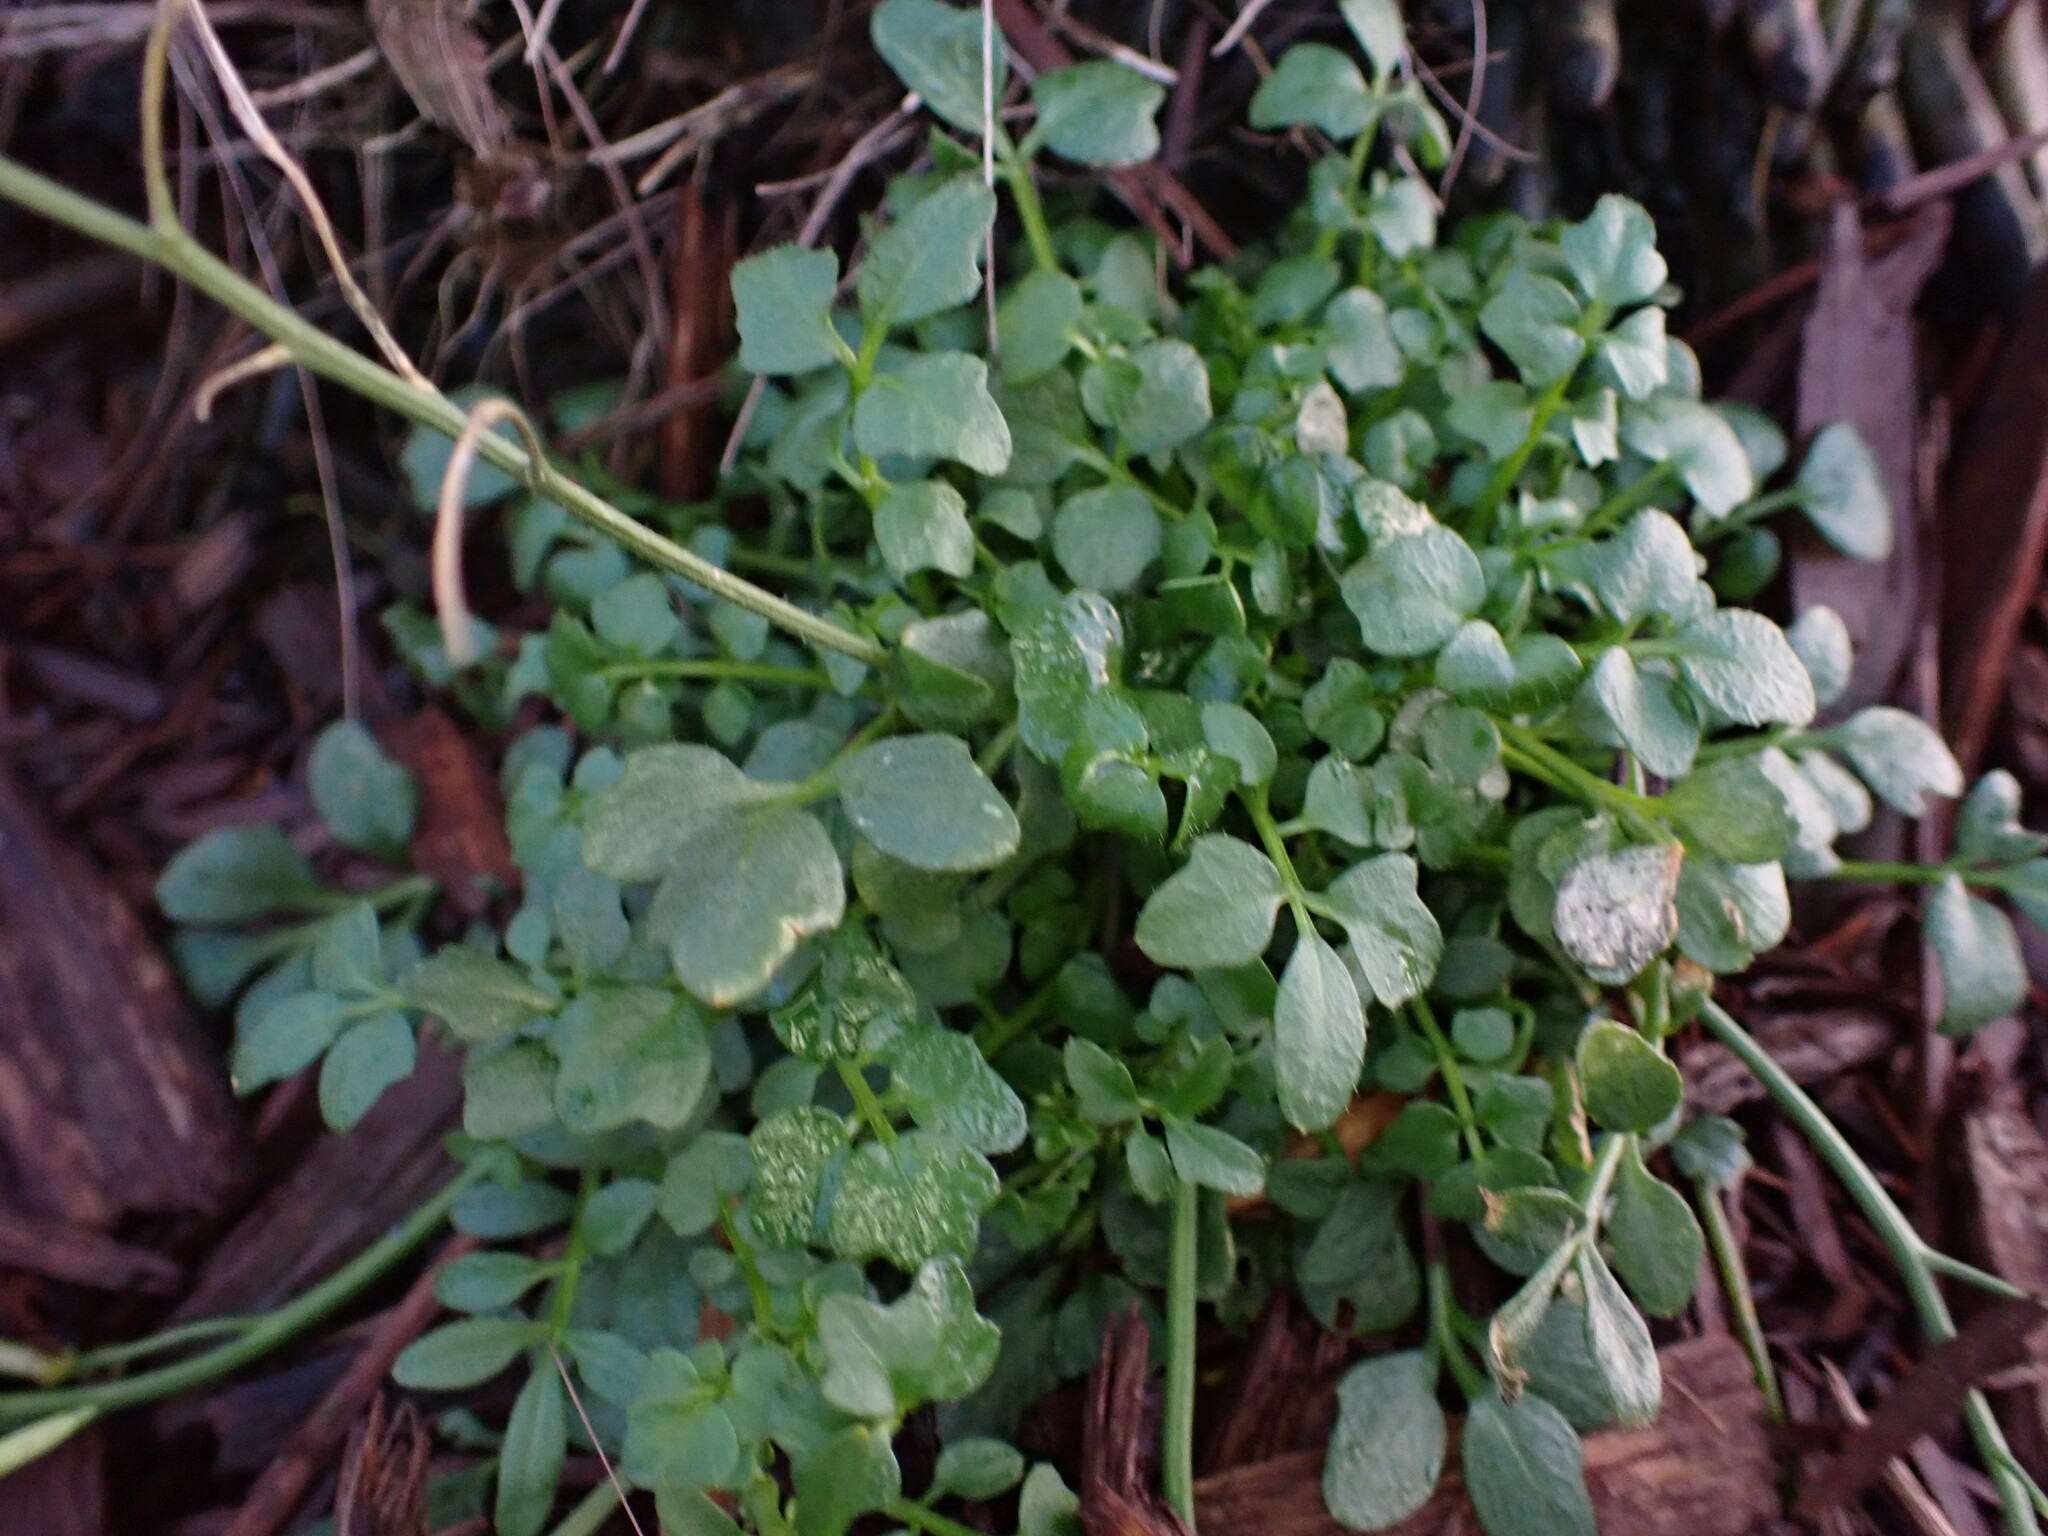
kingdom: Plantae
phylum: Tracheophyta
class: Magnoliopsida
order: Brassicales
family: Brassicaceae
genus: Cardamine
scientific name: Cardamine hirsuta
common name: Hairy bittercress
